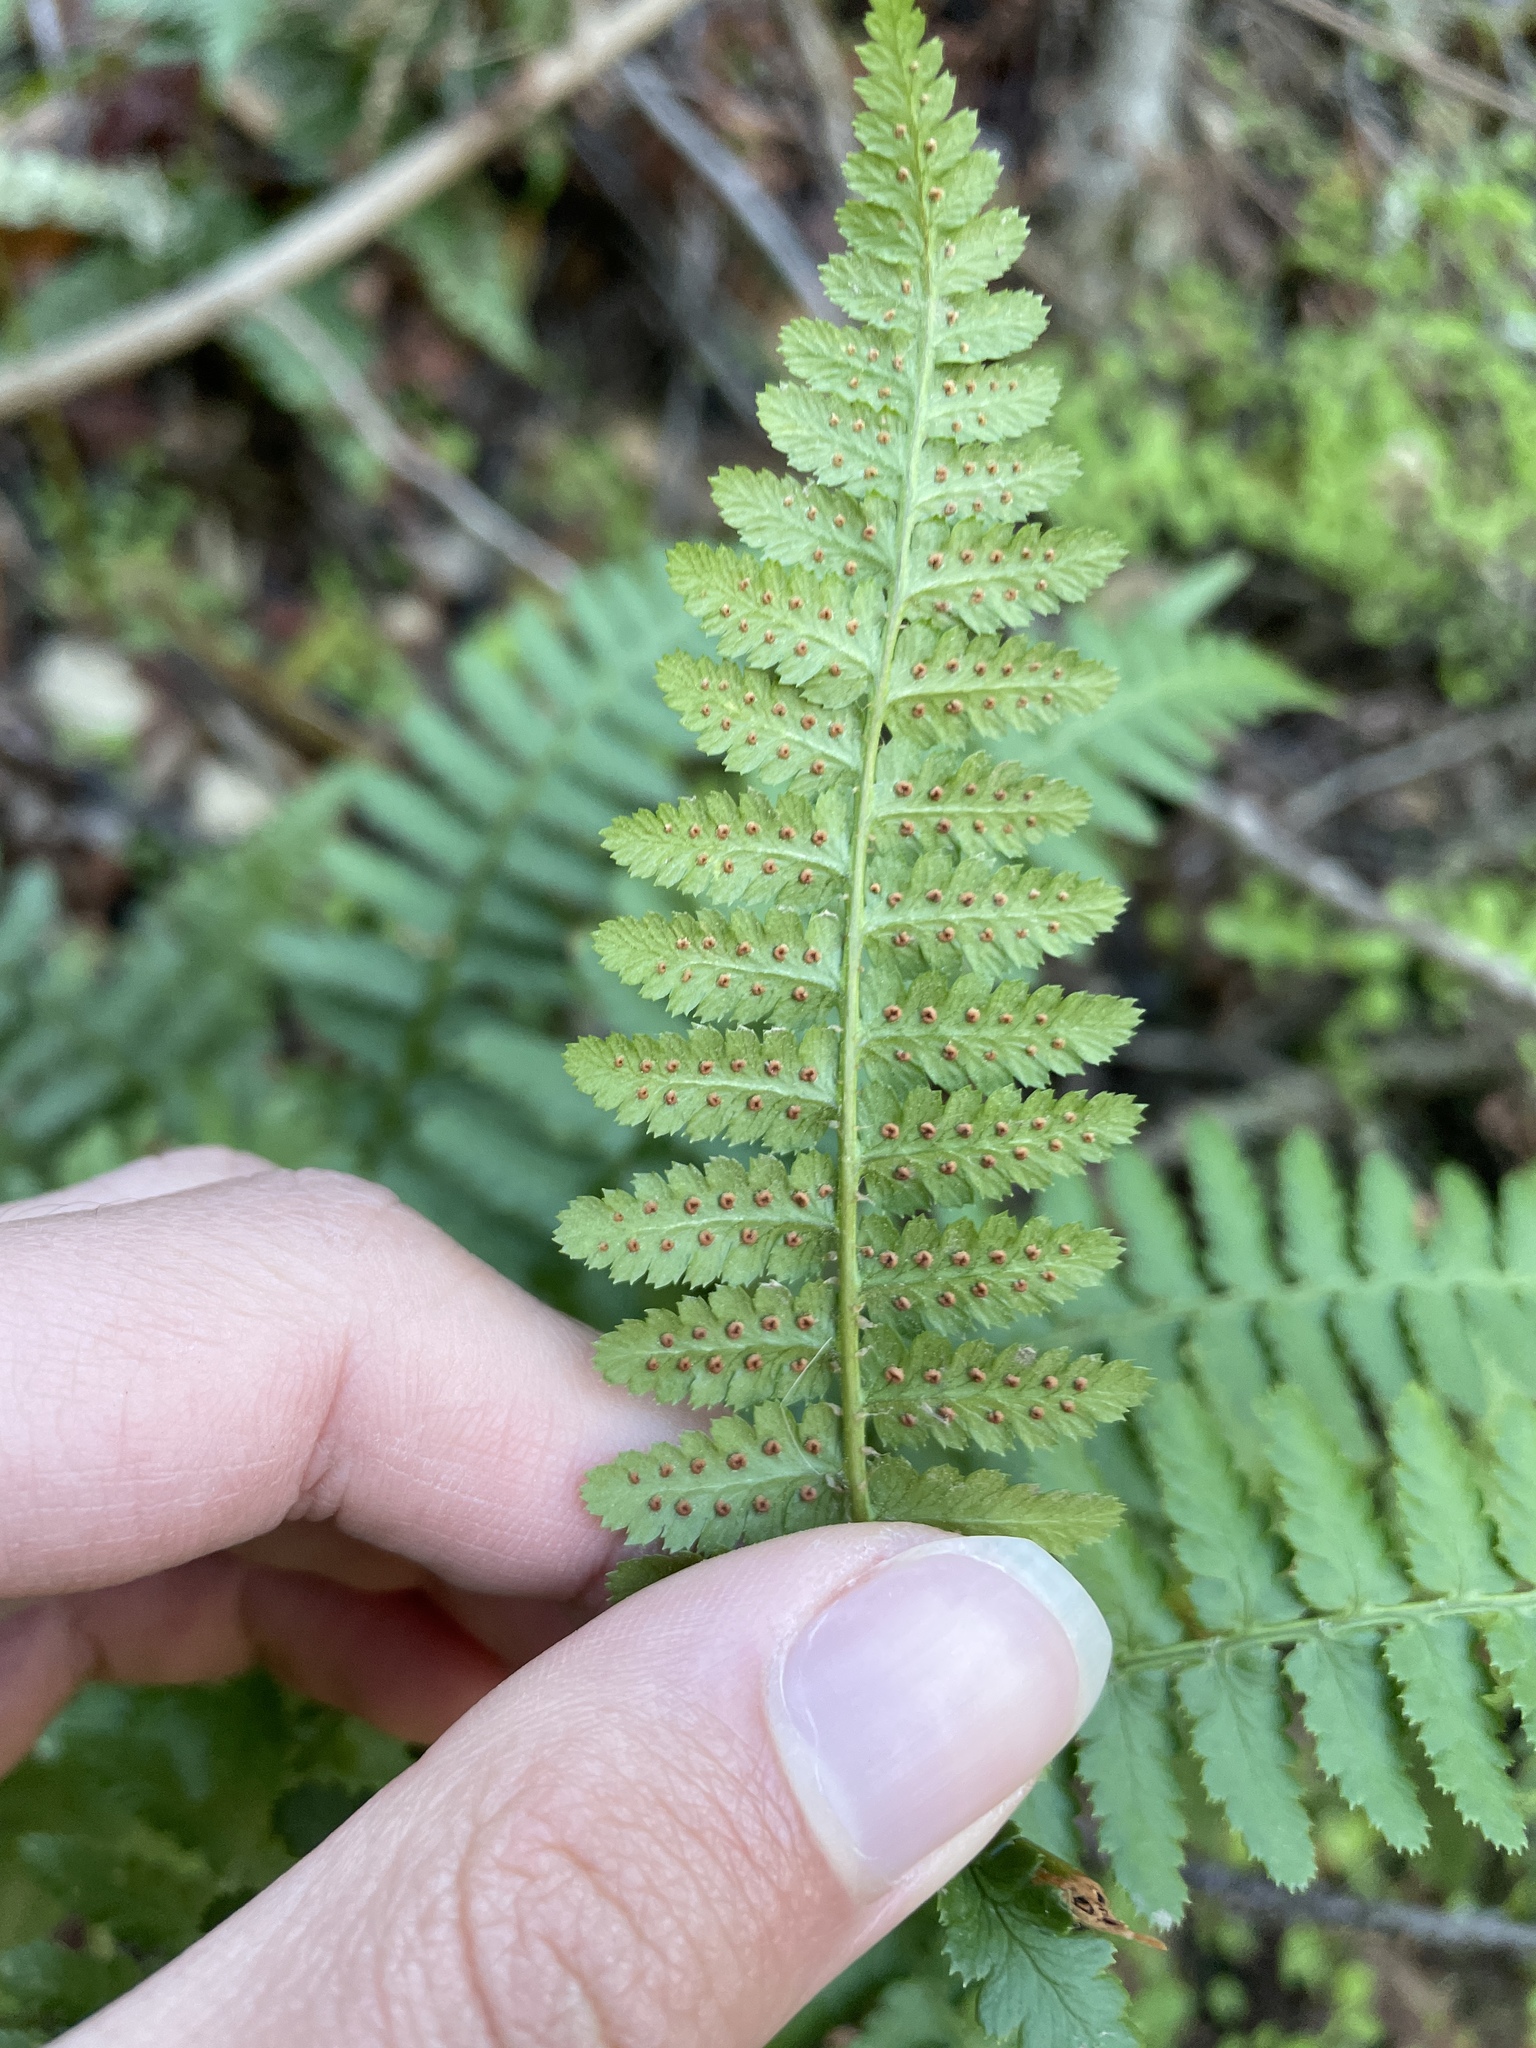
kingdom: Plantae
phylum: Tracheophyta
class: Polypodiopsida
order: Polypodiales
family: Dryopteridaceae
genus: Dryopteris
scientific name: Dryopteris arguta
